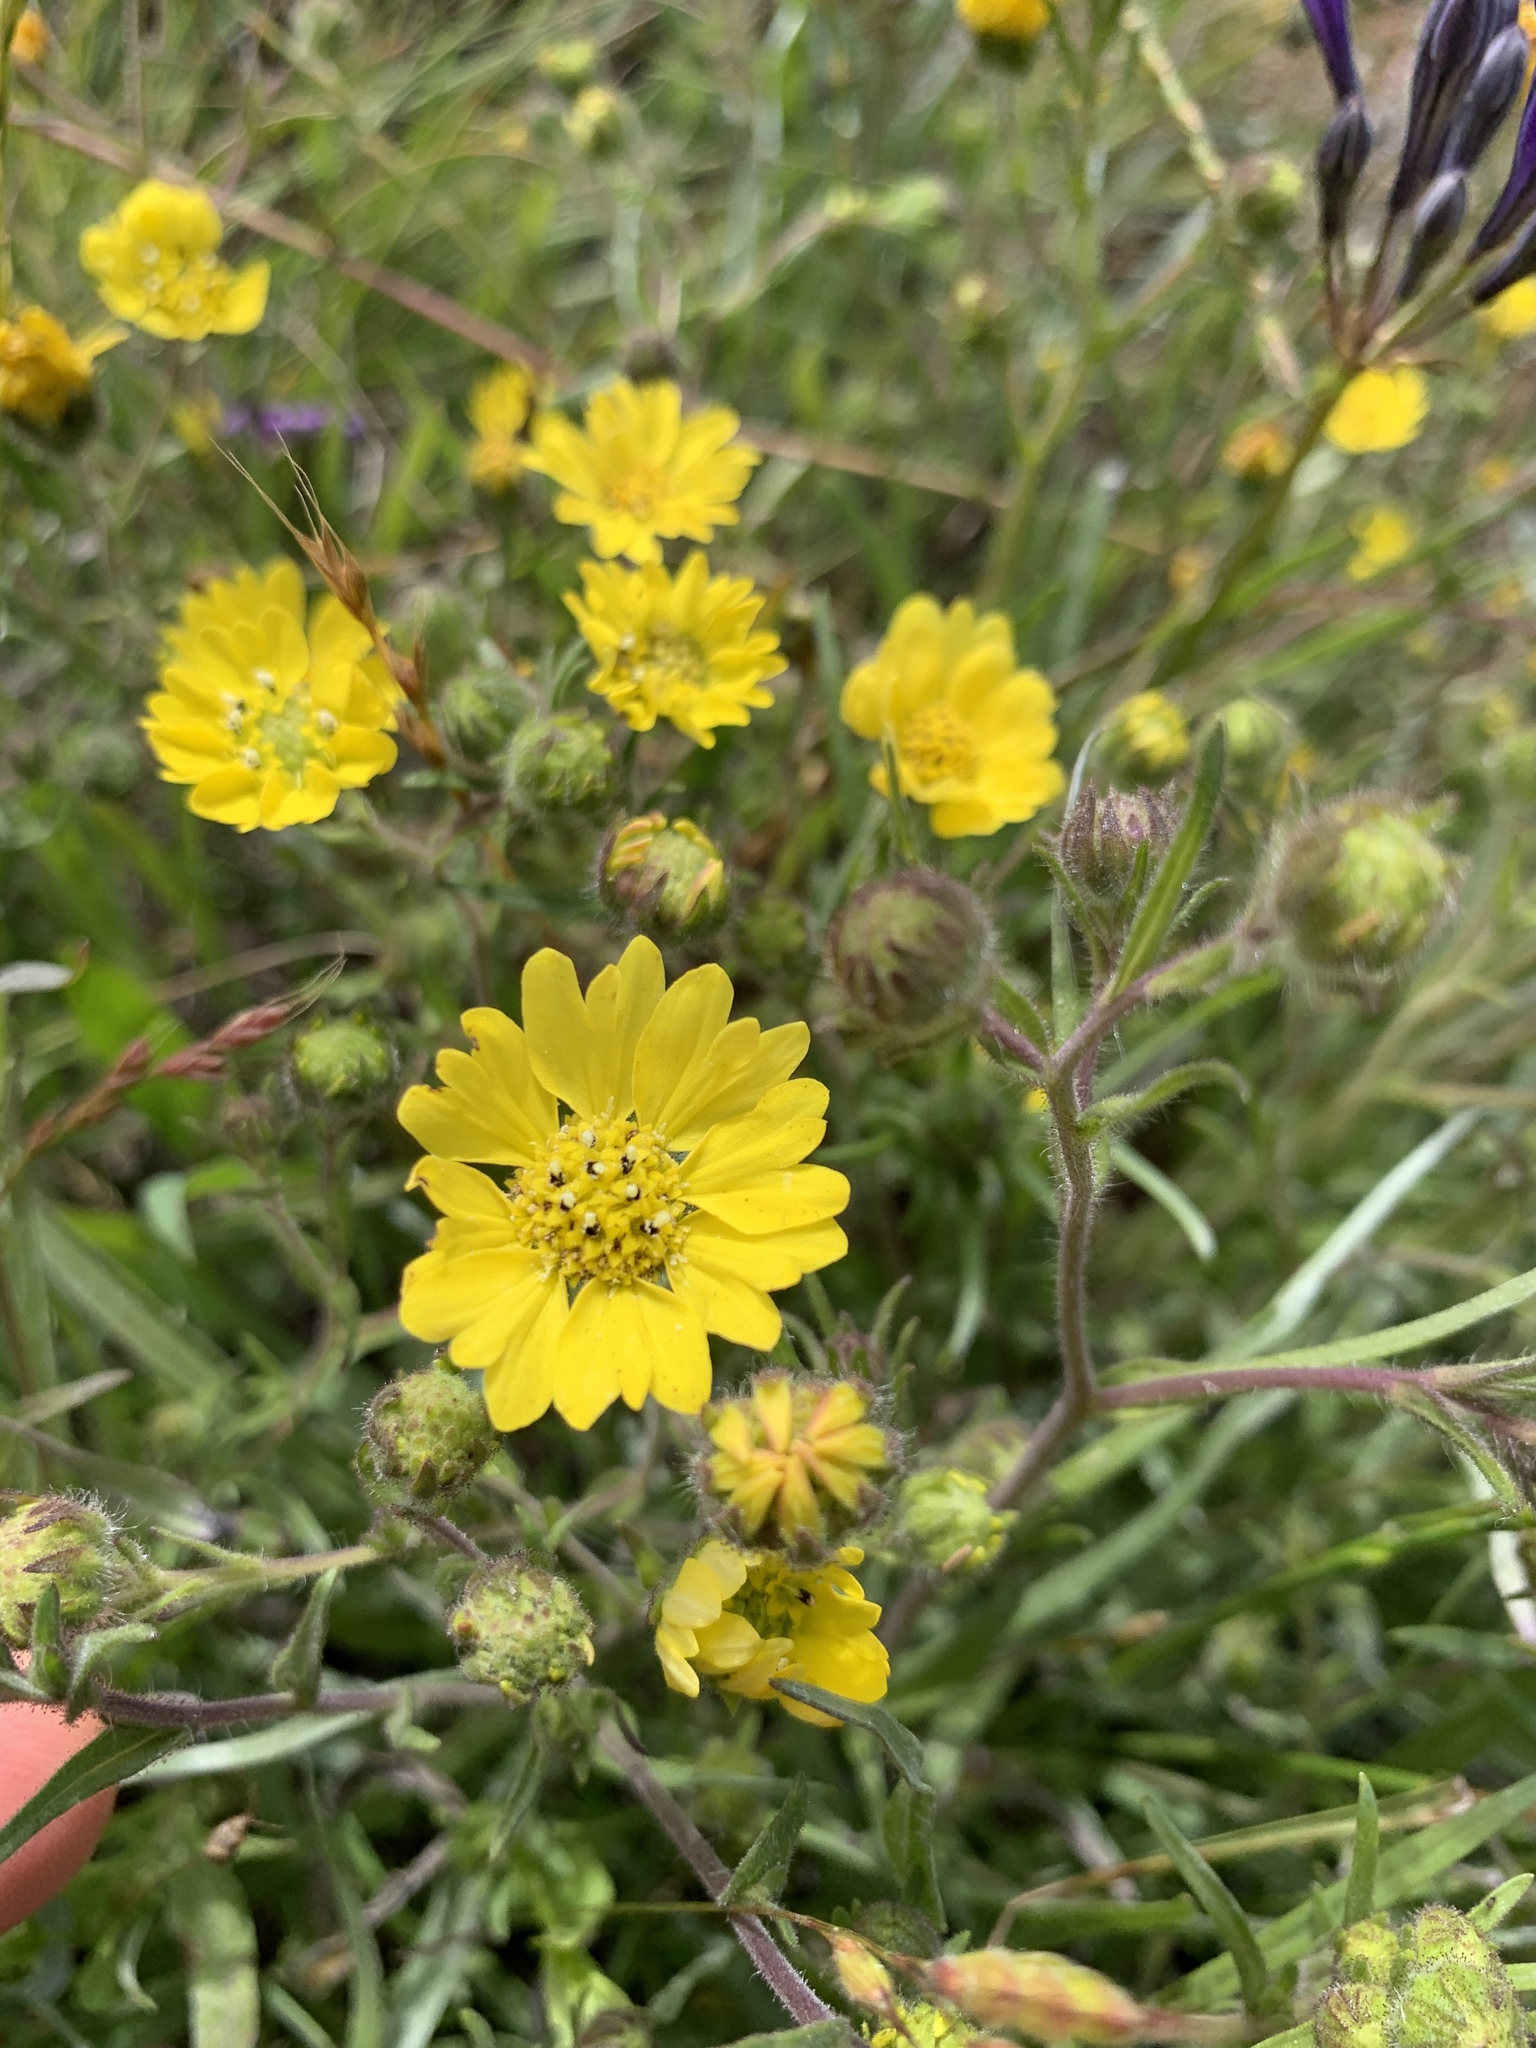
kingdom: Plantae
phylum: Tracheophyta
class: Magnoliopsida
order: Asterales
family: Asteraceae
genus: Hemizonia
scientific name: Hemizonia congesta
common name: Hayfield tarweed
